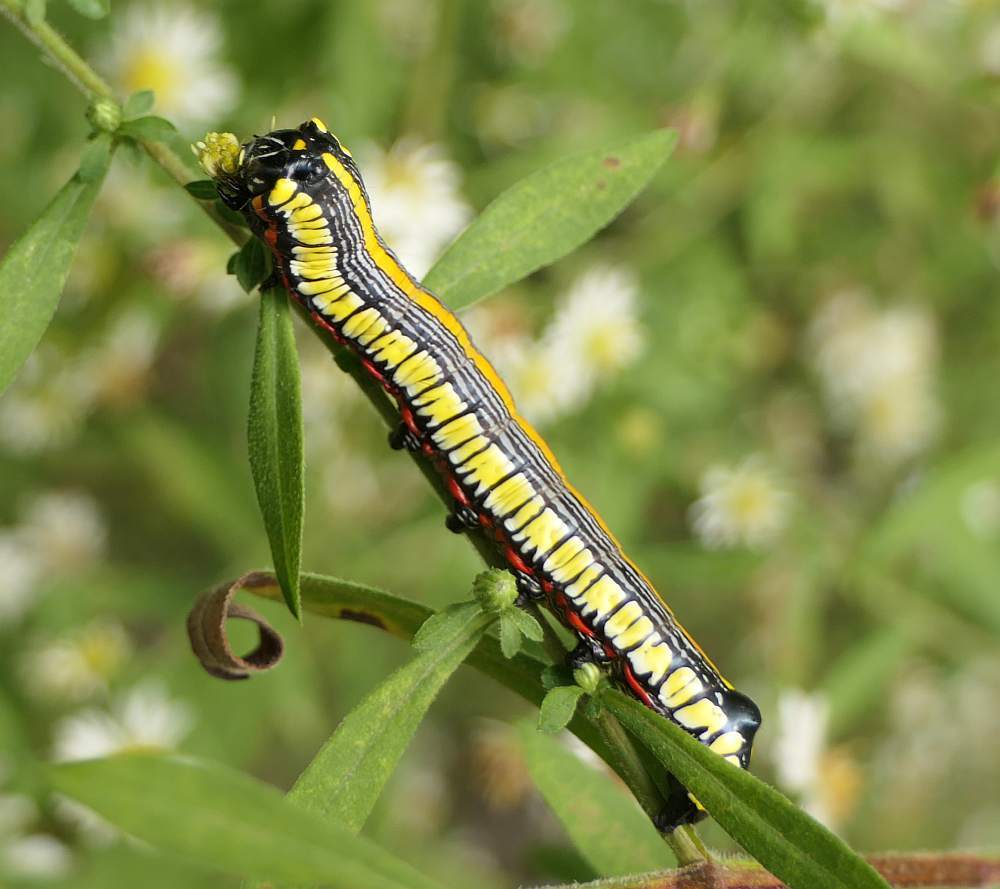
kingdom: Animalia
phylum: Arthropoda
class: Insecta
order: Lepidoptera
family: Noctuidae
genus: Cucullia
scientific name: Cucullia convexipennis
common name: Brown-hooded owlet
